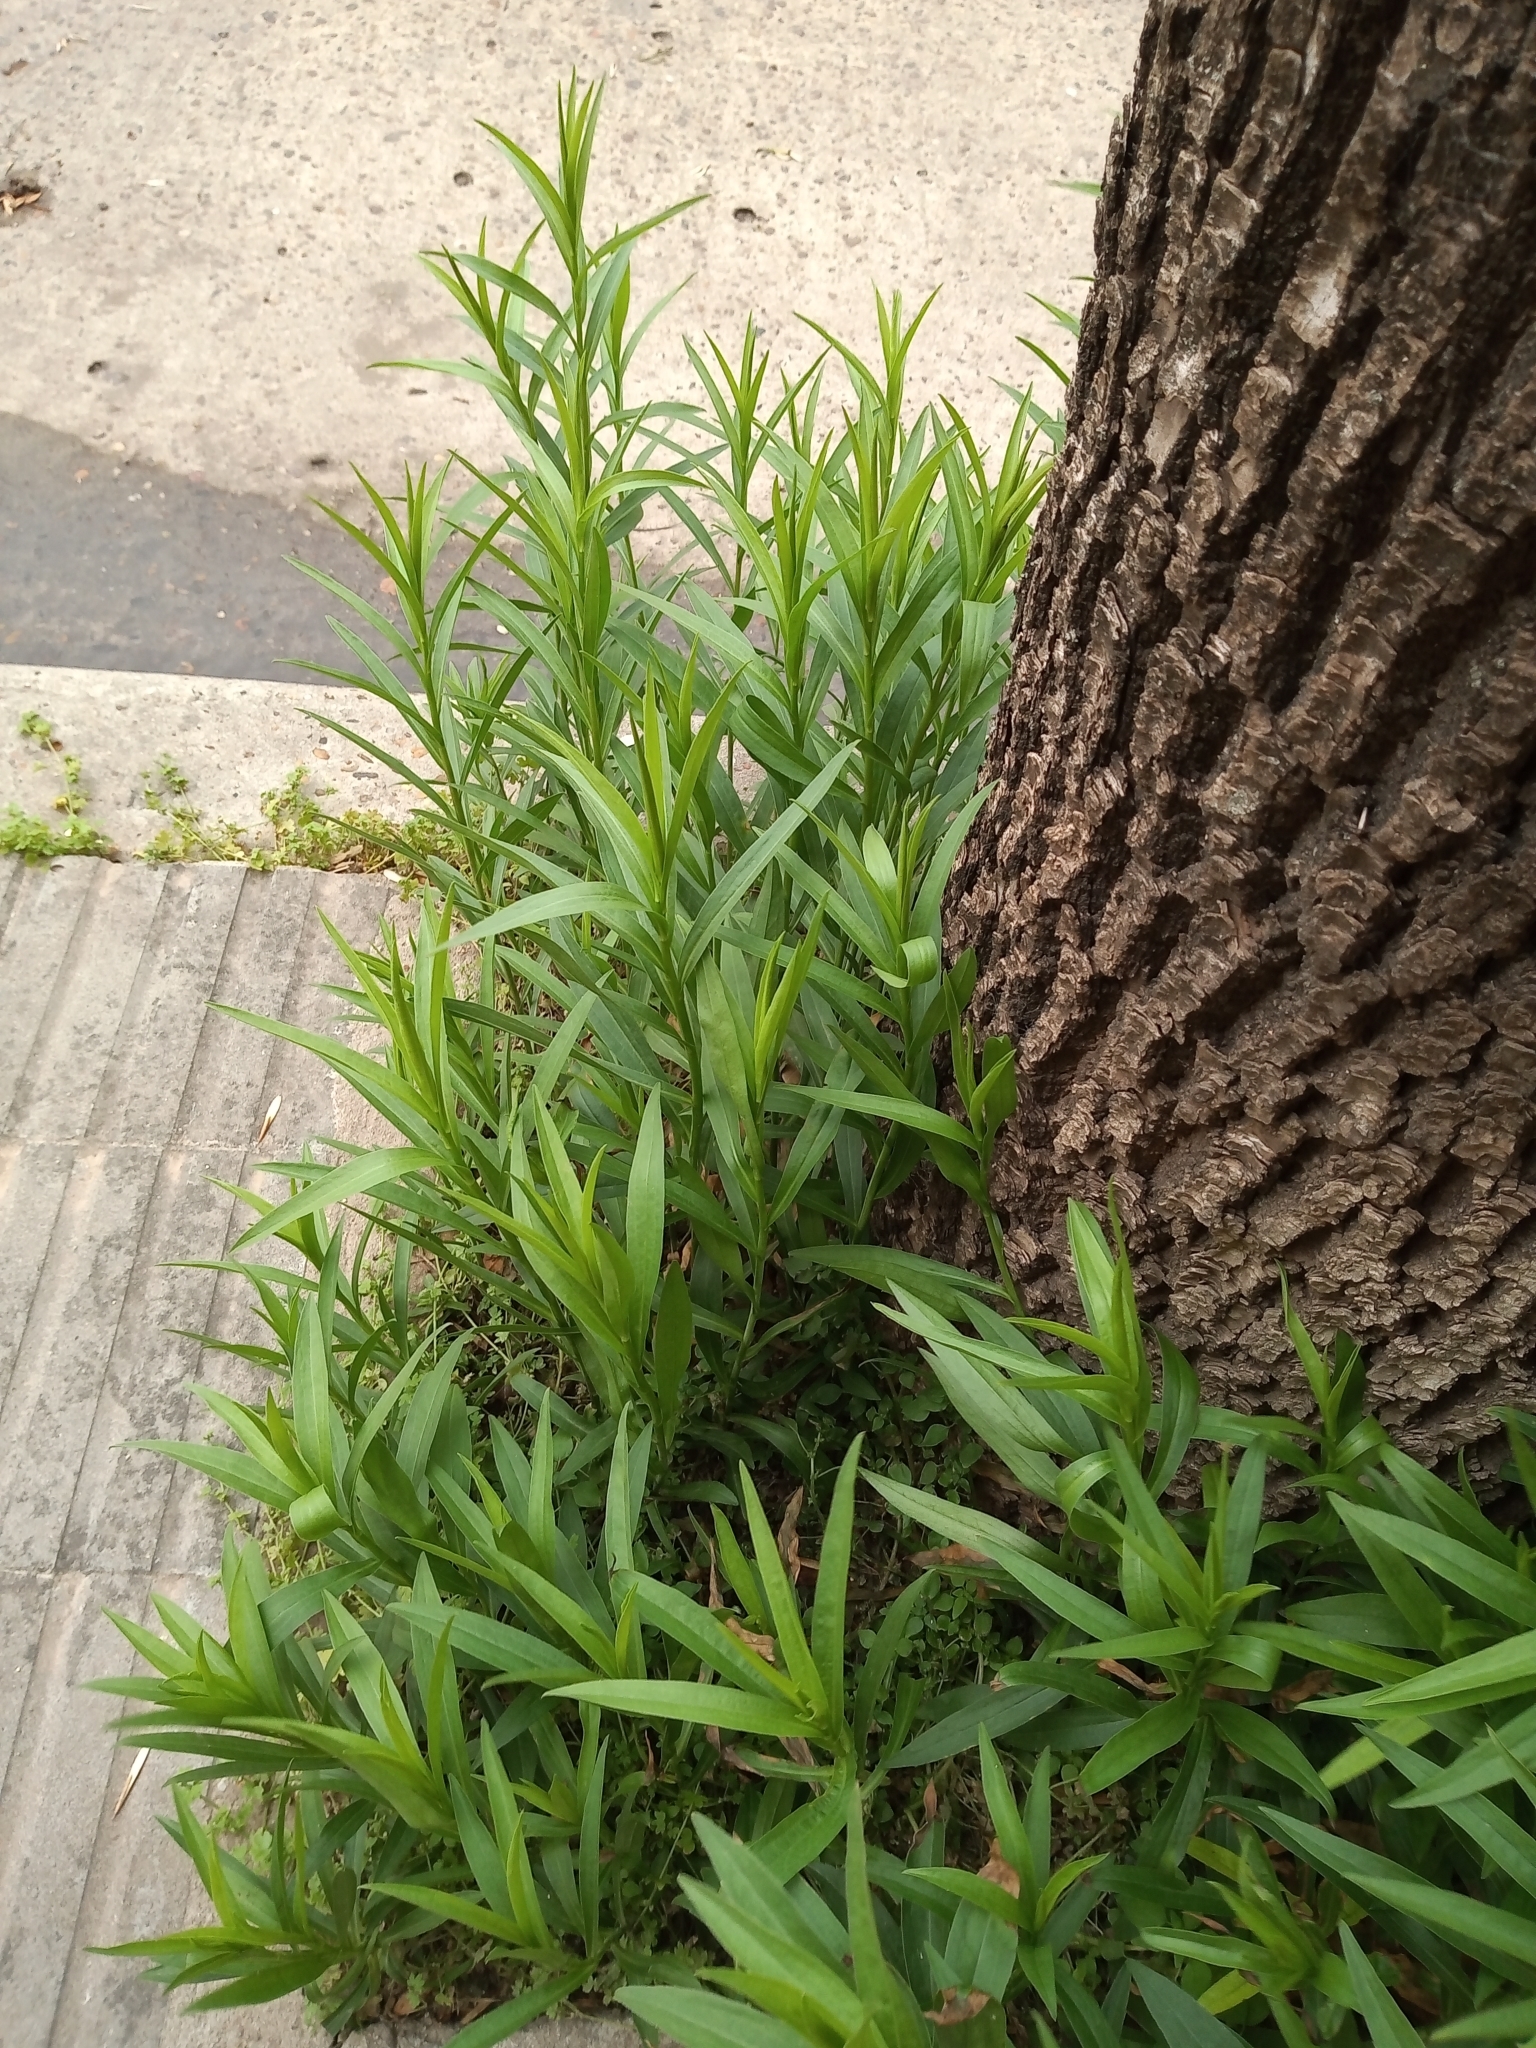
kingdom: Plantae
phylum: Tracheophyta
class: Magnoliopsida
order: Asterales
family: Asteraceae
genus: Solidago
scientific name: Solidago chilensis
